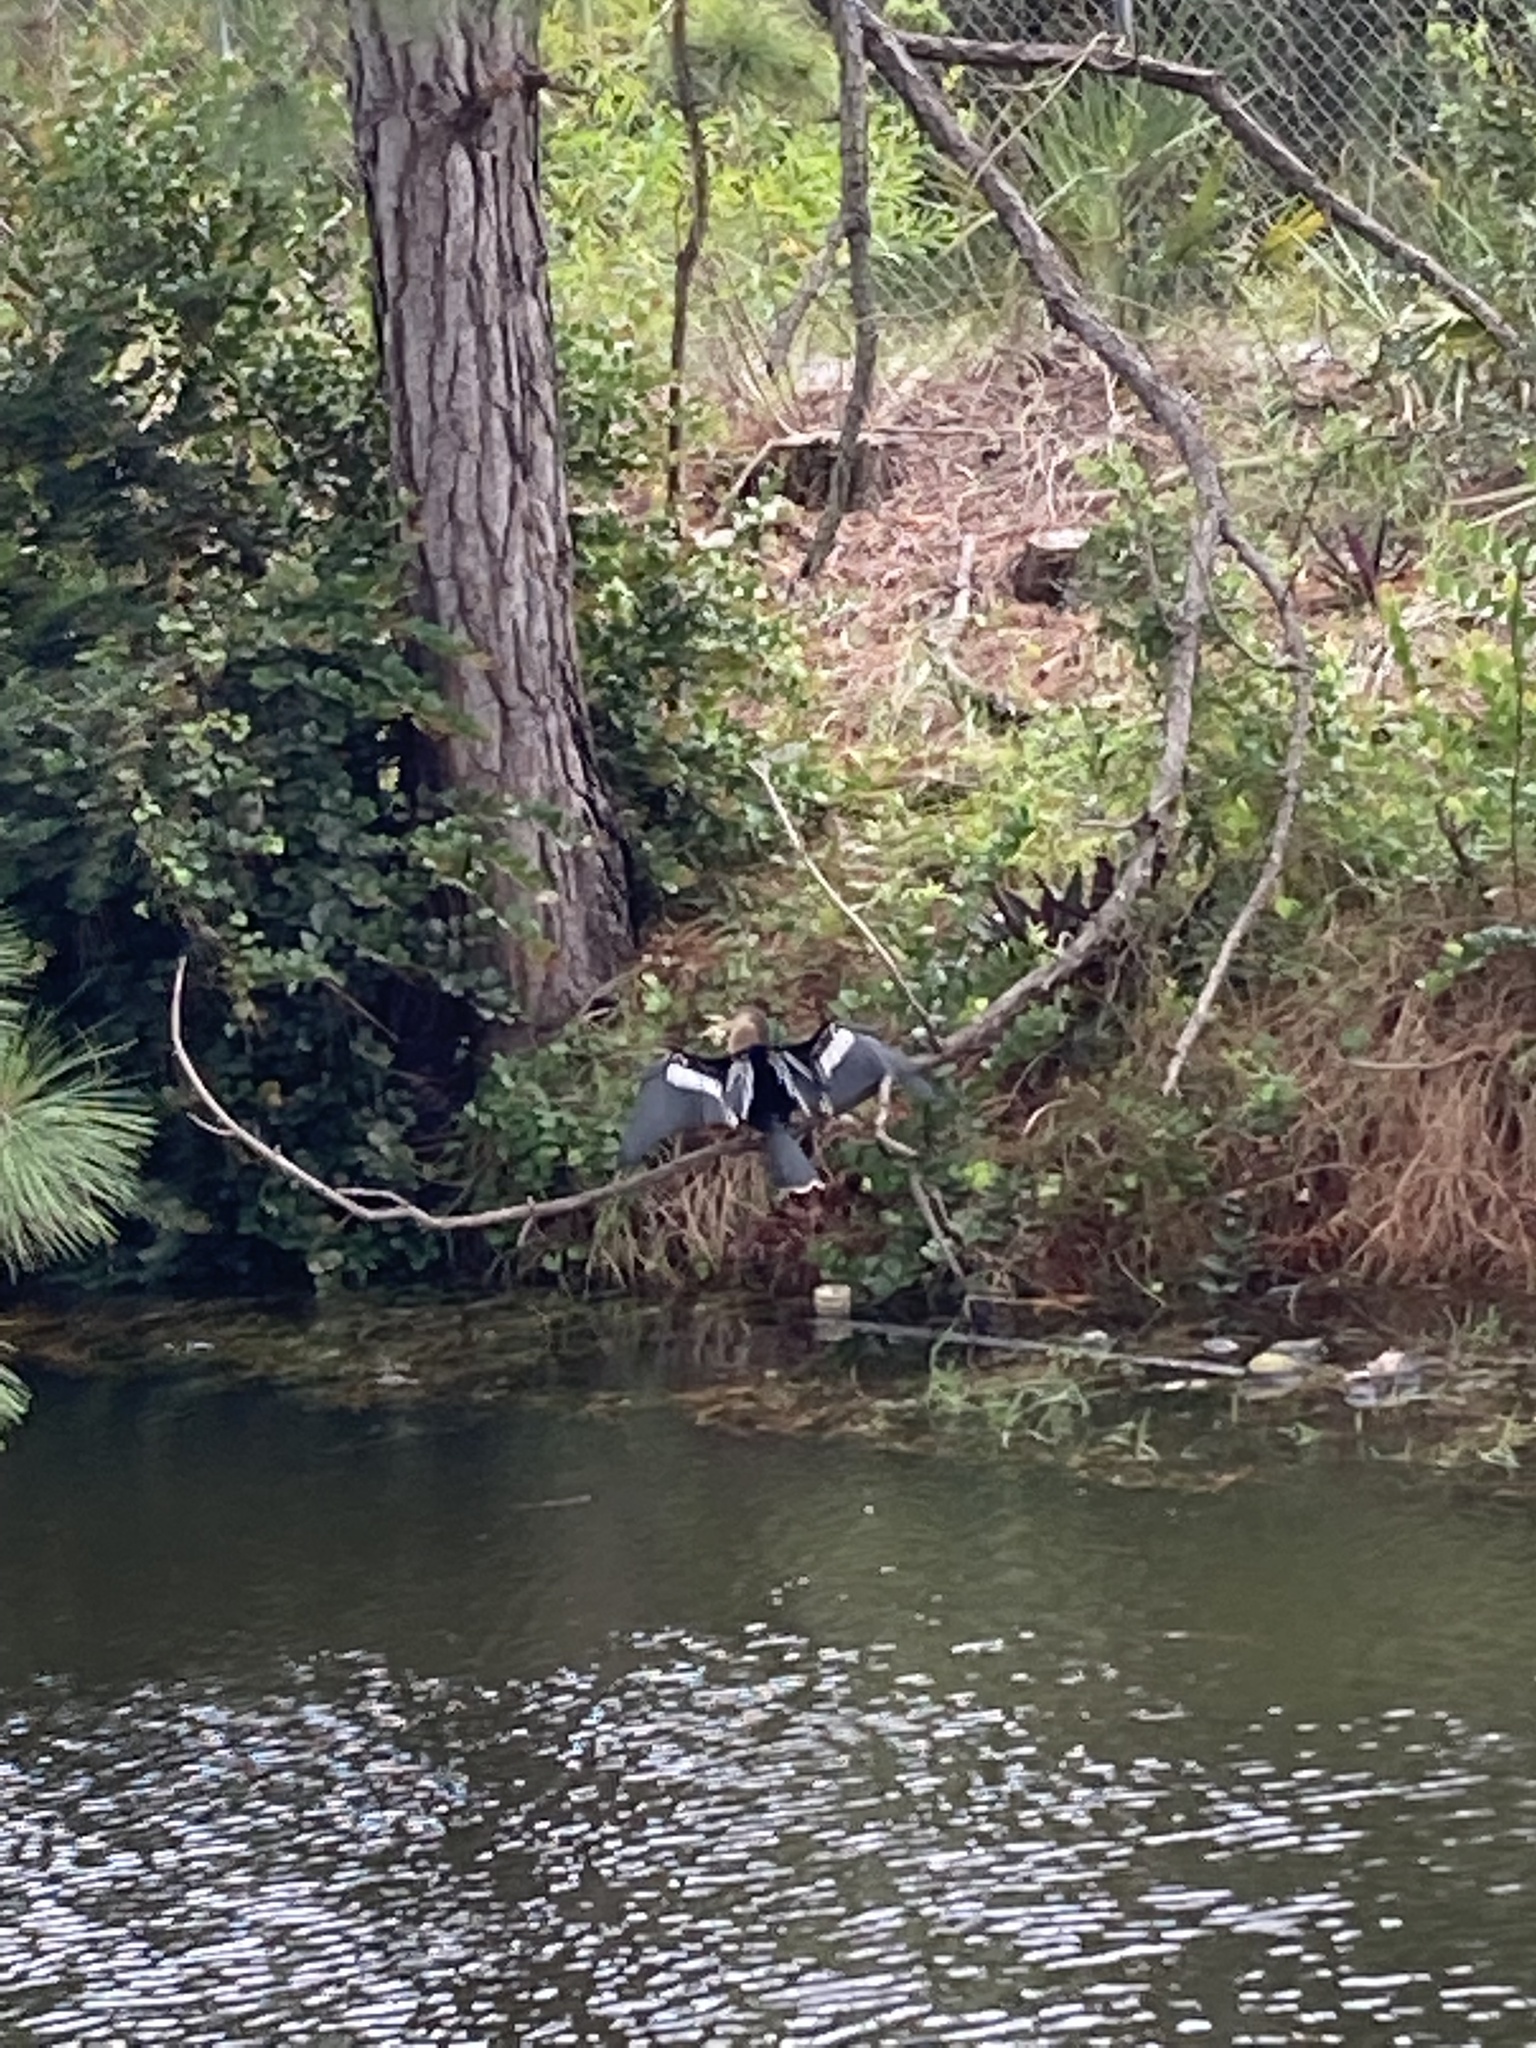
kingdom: Animalia
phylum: Chordata
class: Aves
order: Suliformes
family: Anhingidae
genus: Anhinga
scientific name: Anhinga anhinga
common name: Anhinga
